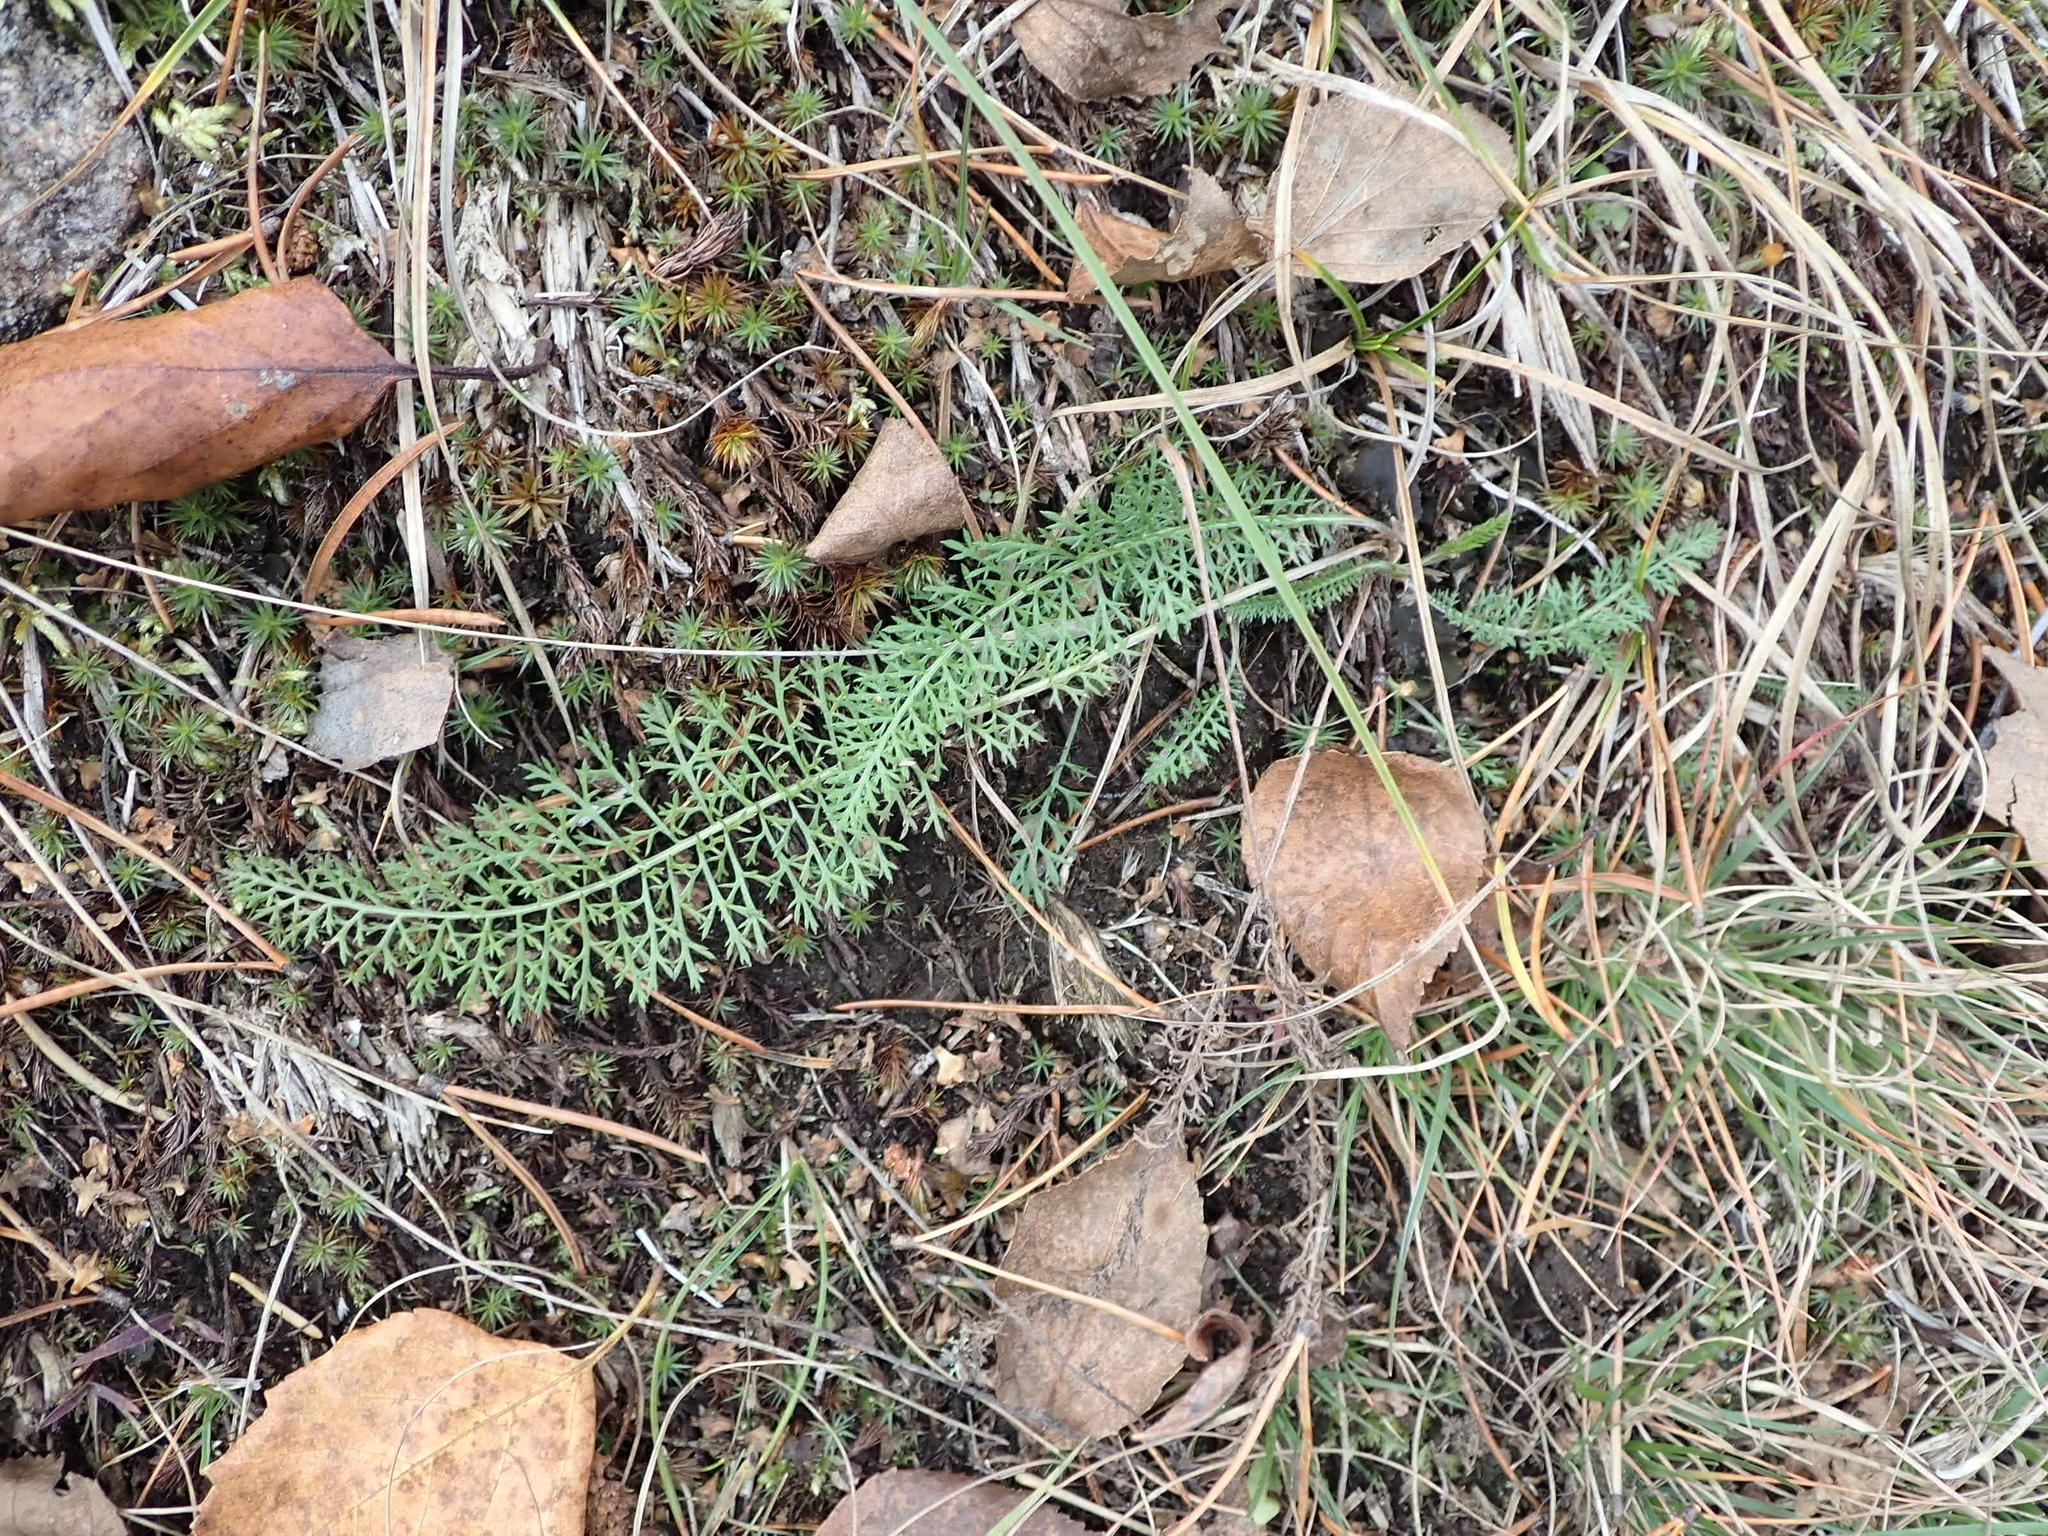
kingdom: Plantae
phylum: Tracheophyta
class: Magnoliopsida
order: Asterales
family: Asteraceae
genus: Achillea
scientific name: Achillea millefolium
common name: Yarrow
